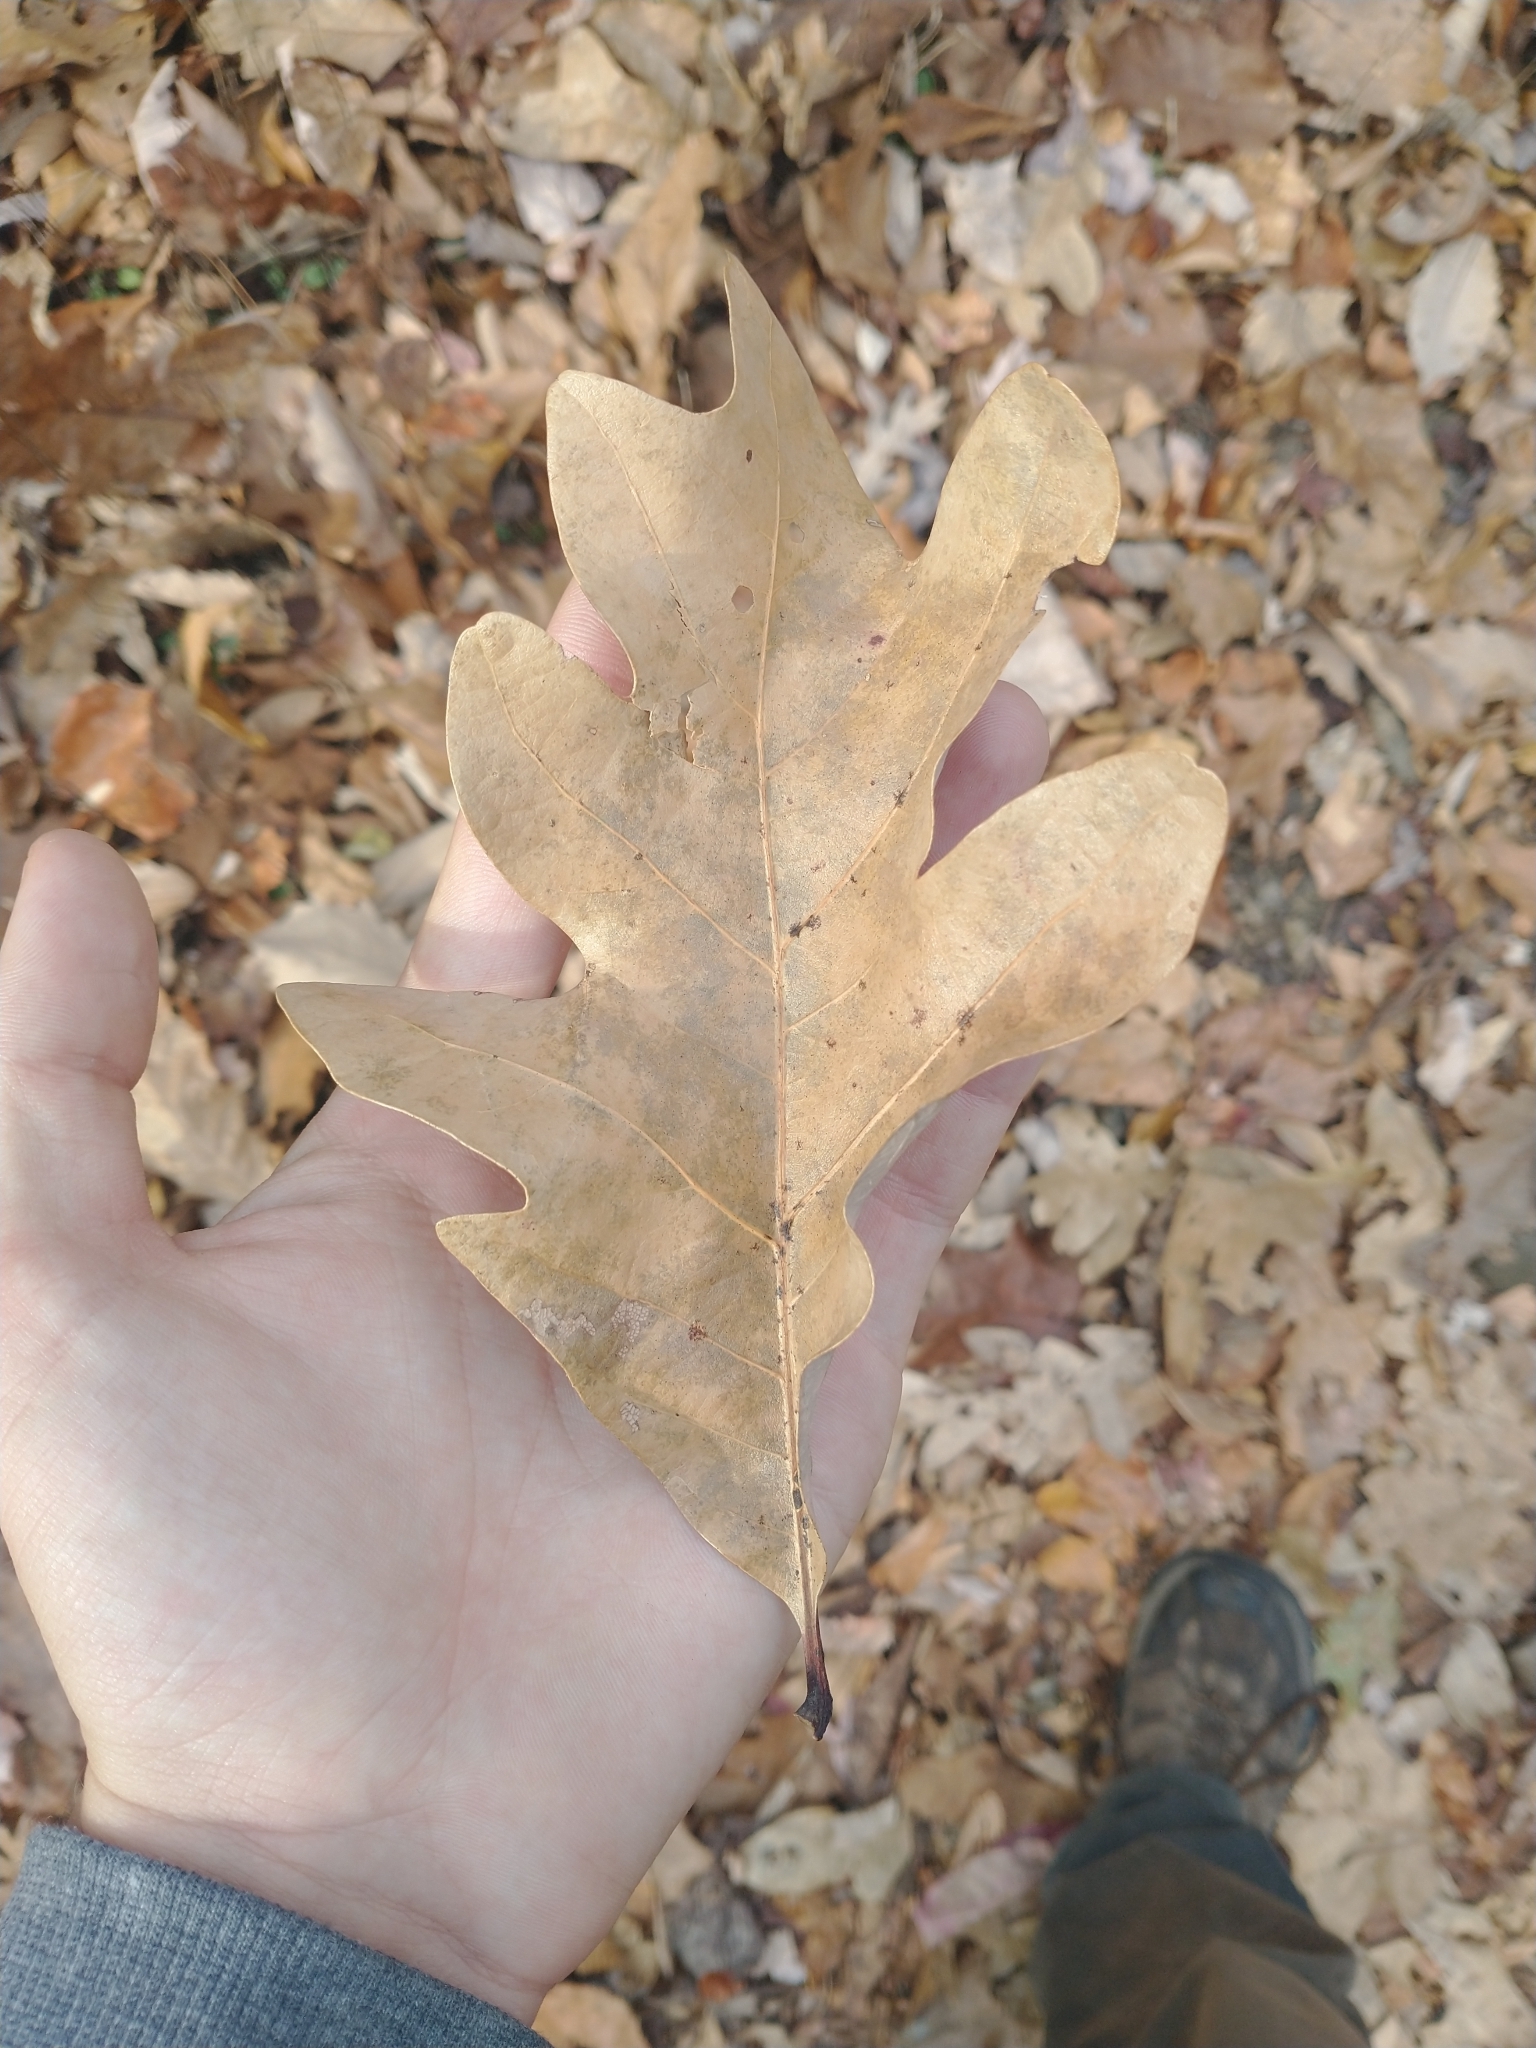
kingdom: Plantae
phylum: Tracheophyta
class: Magnoliopsida
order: Fagales
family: Fagaceae
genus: Quercus
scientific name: Quercus alba
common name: White oak
